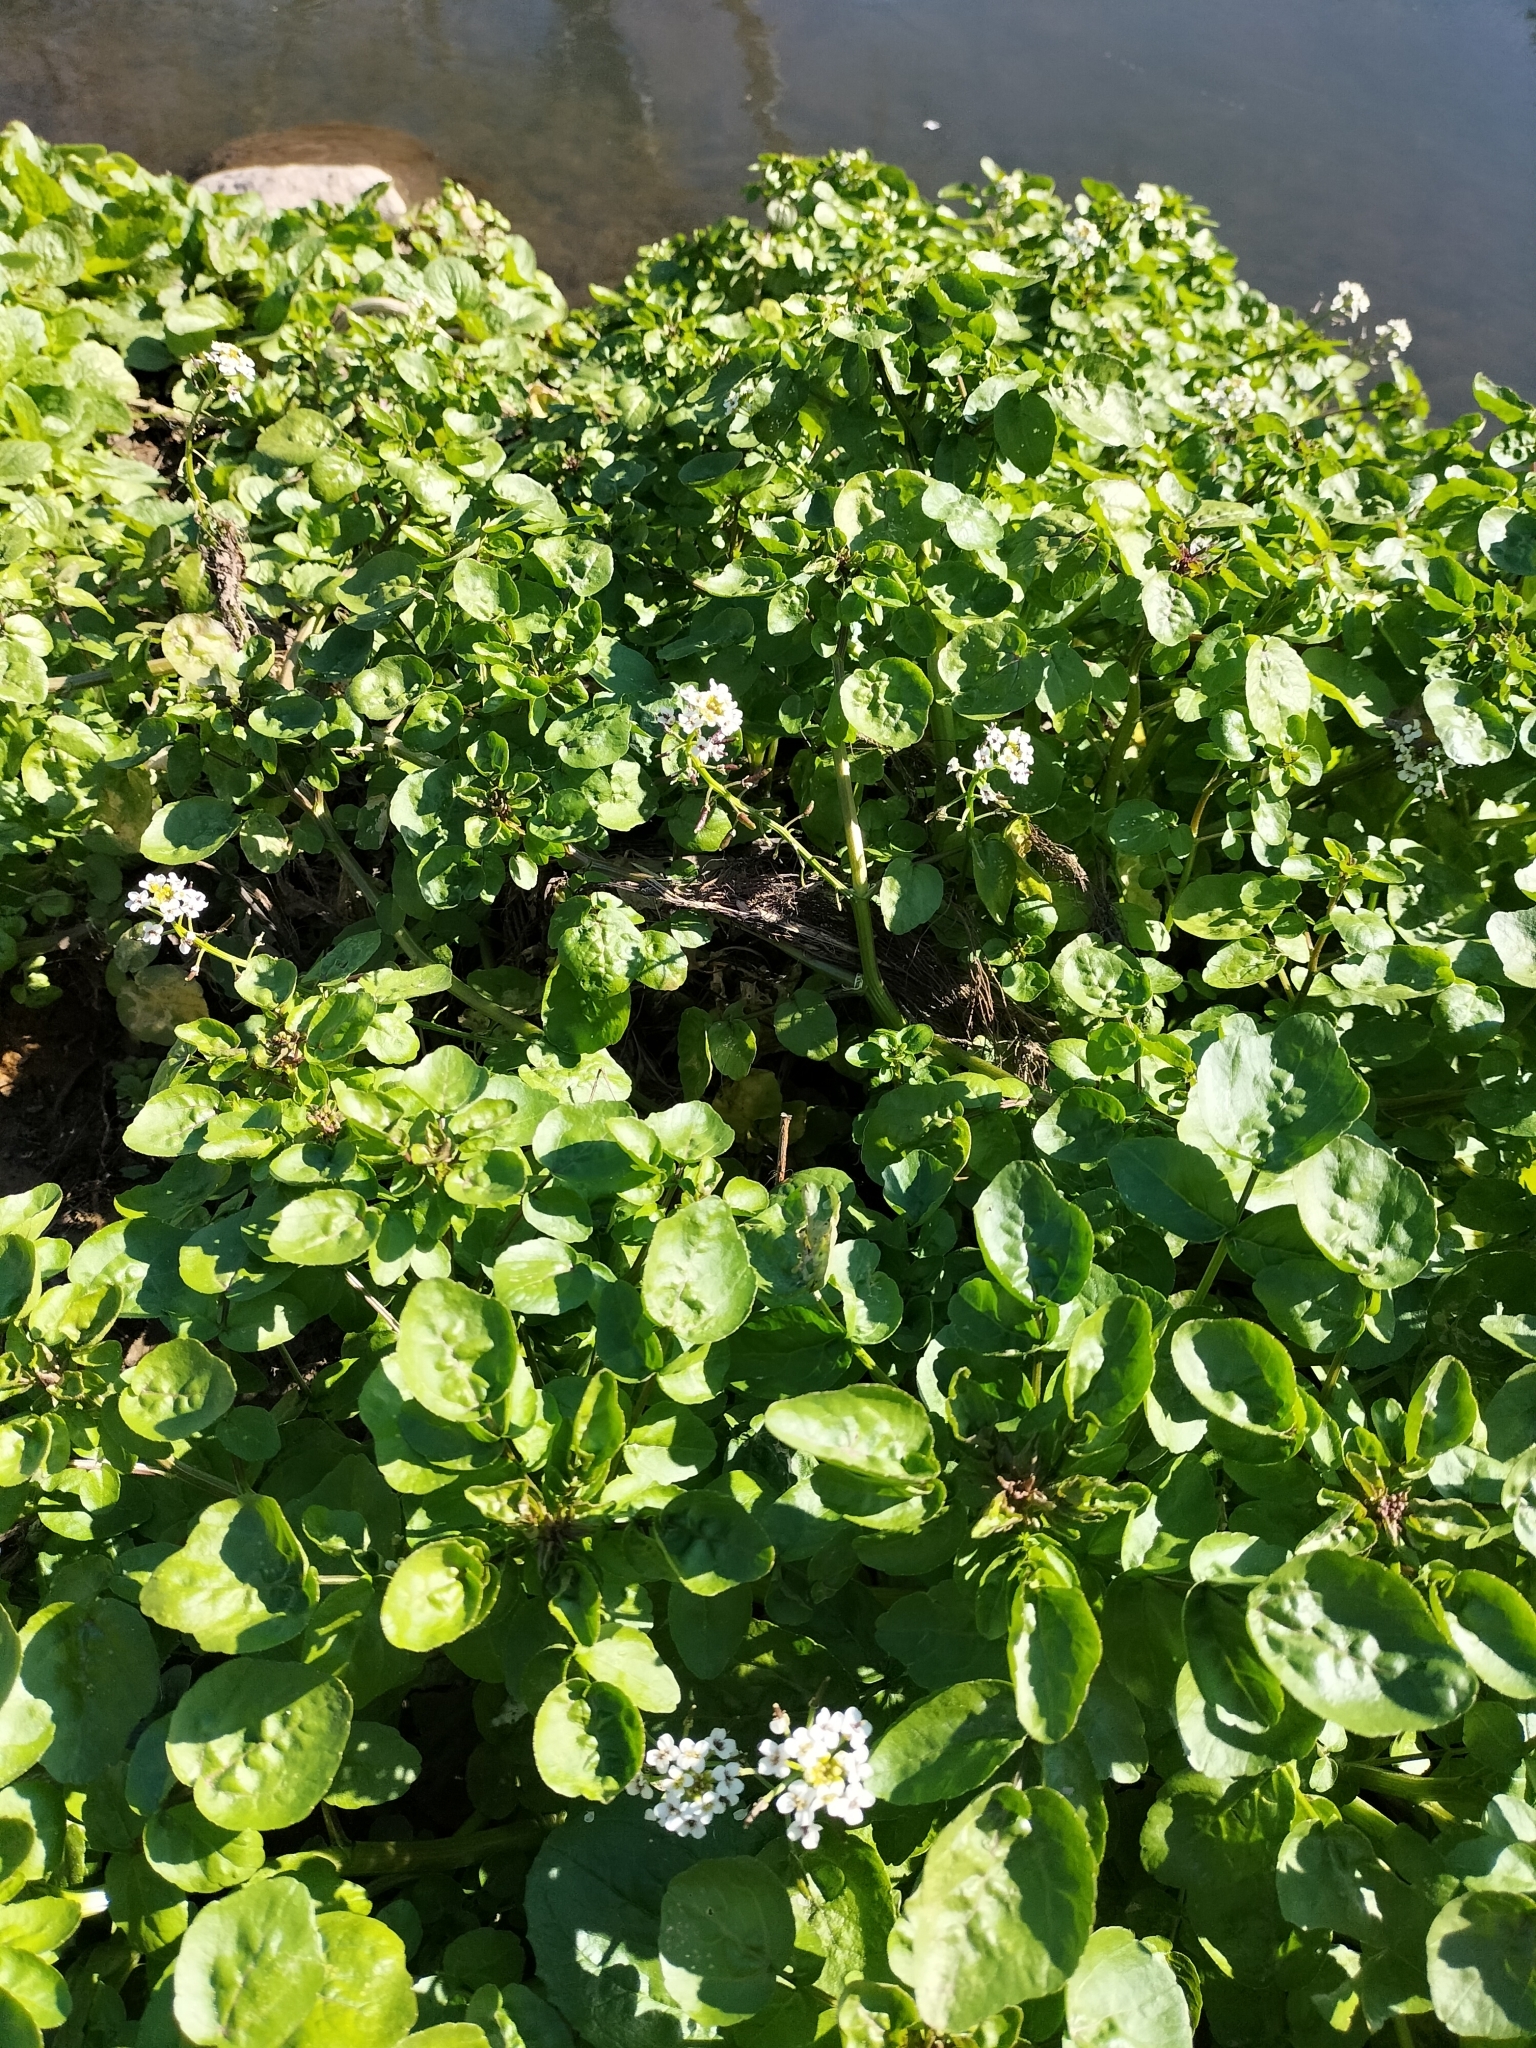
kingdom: Plantae
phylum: Tracheophyta
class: Magnoliopsida
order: Brassicales
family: Brassicaceae
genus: Nasturtium
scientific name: Nasturtium officinale
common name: Watercress
